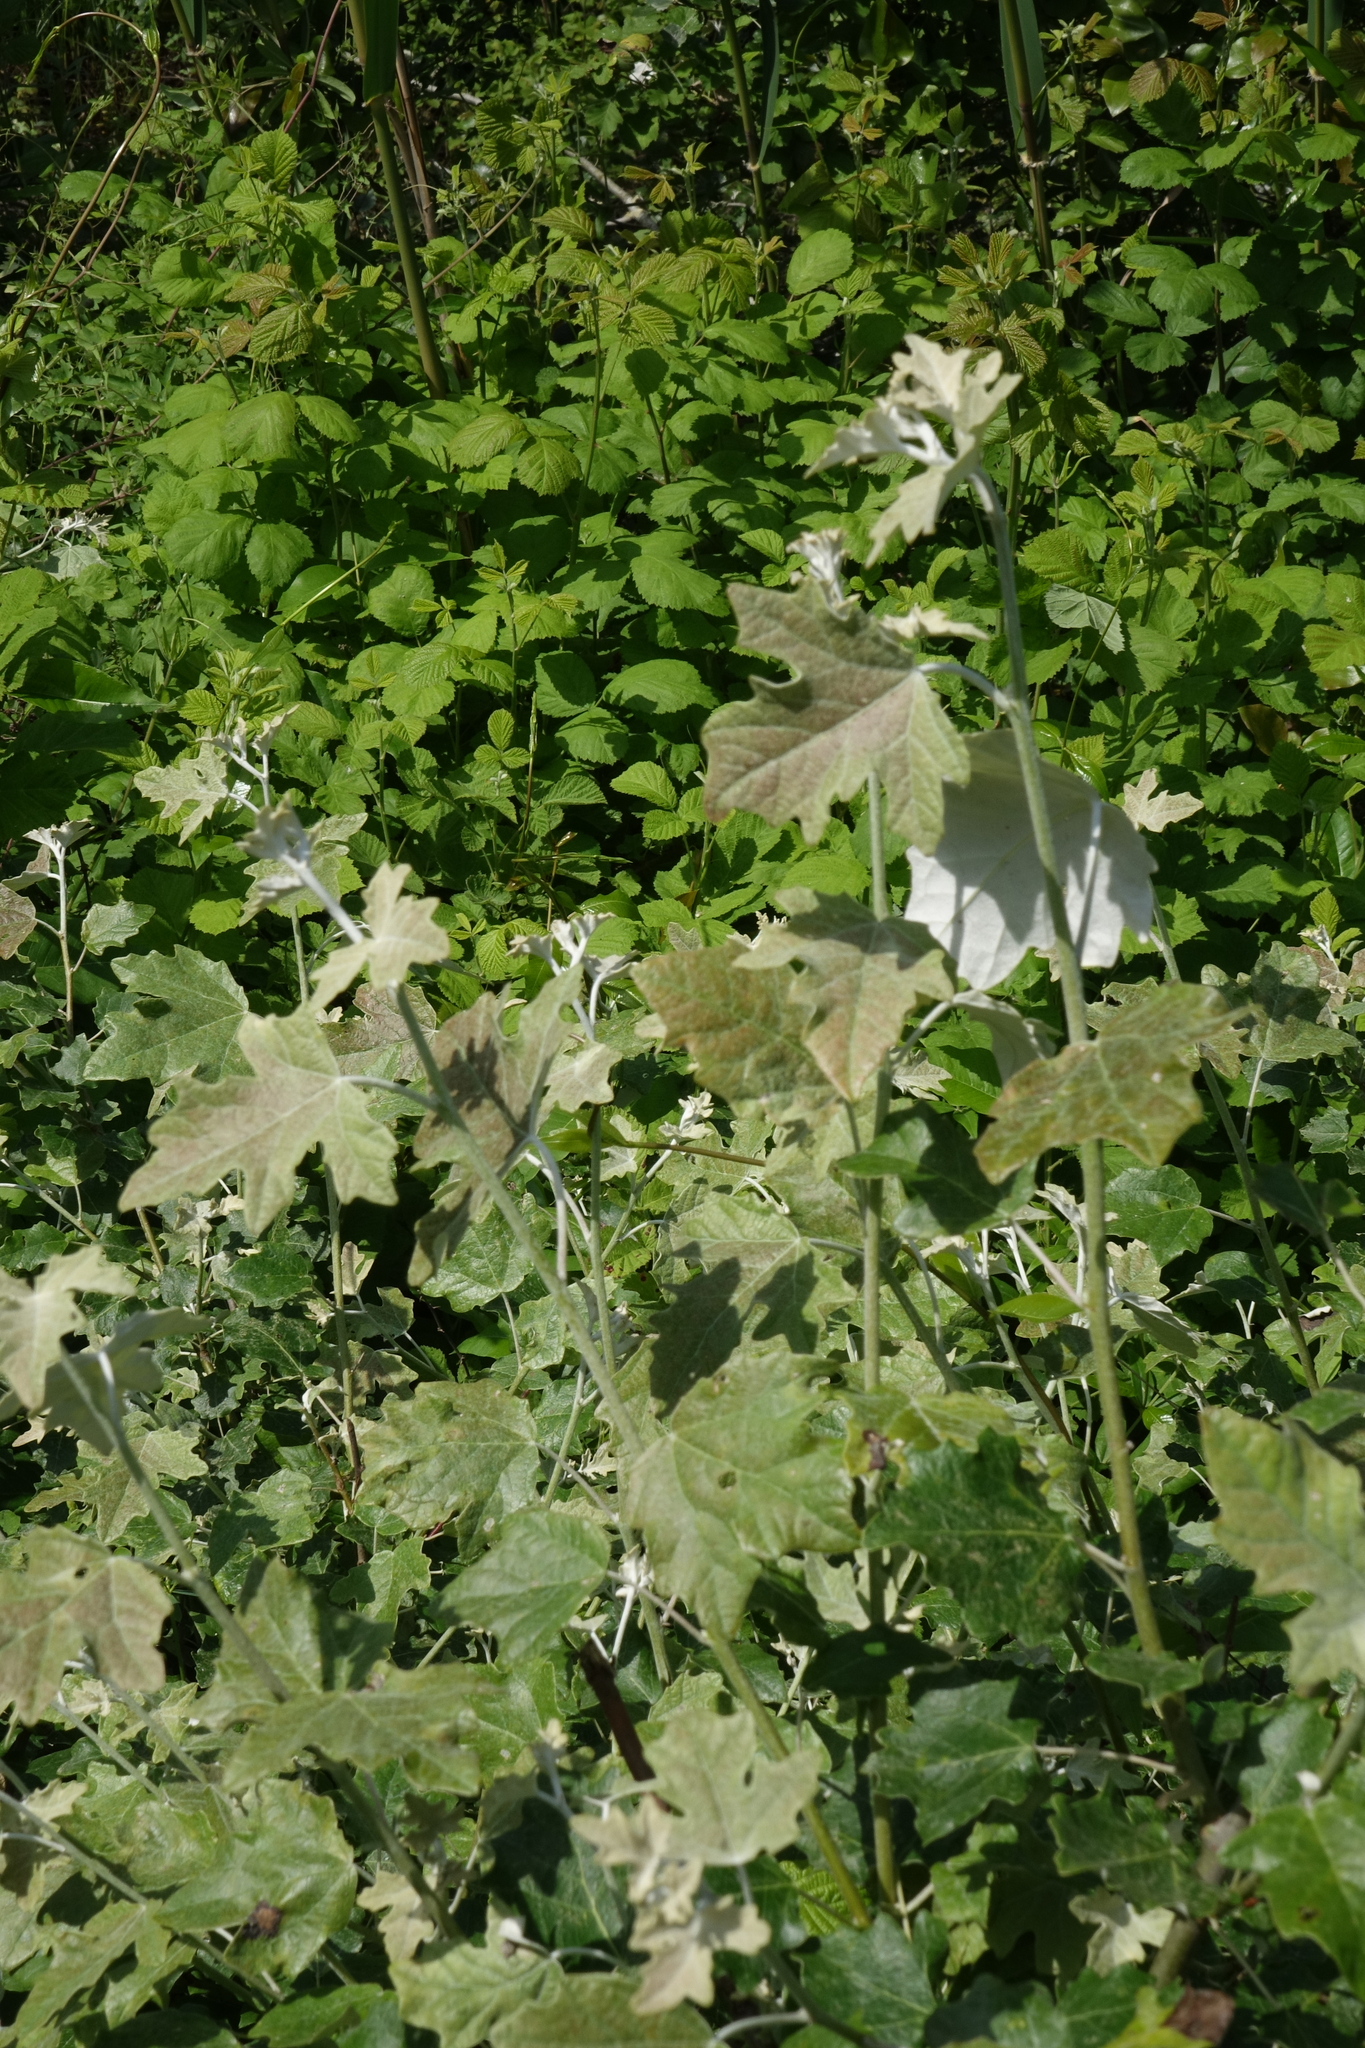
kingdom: Plantae
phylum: Tracheophyta
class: Magnoliopsida
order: Malpighiales
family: Salicaceae
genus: Populus
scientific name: Populus alba
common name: White poplar
